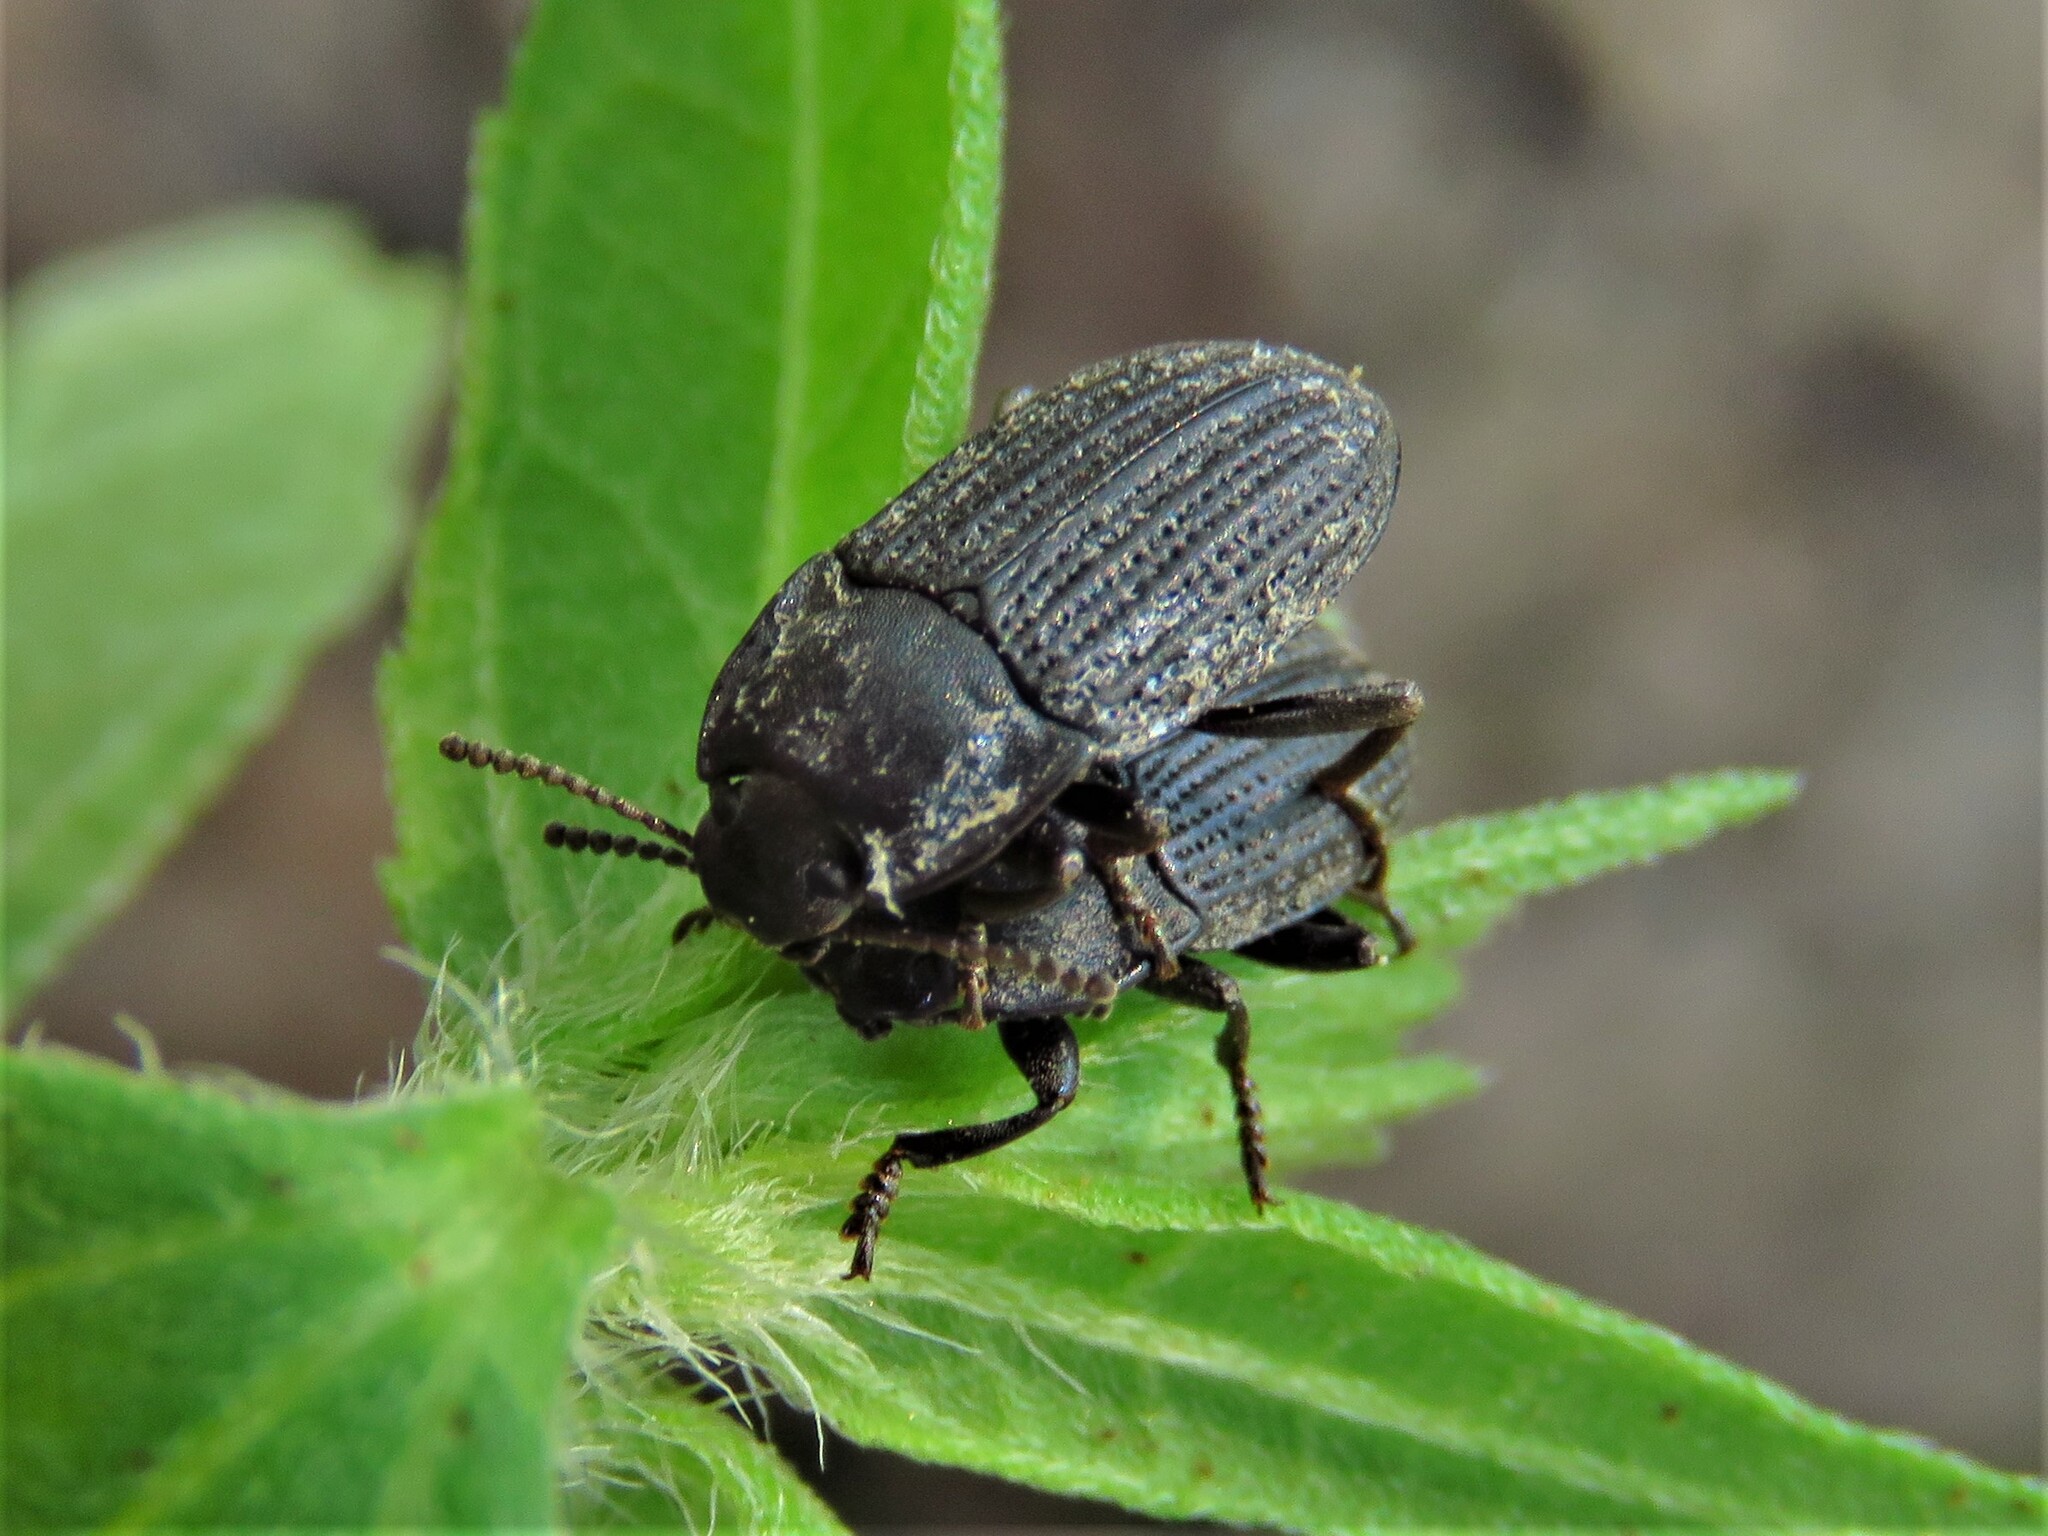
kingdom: Animalia
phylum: Arthropoda
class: Insecta
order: Coleoptera
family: Tenebrionidae
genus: Asiopus
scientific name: Asiopus
